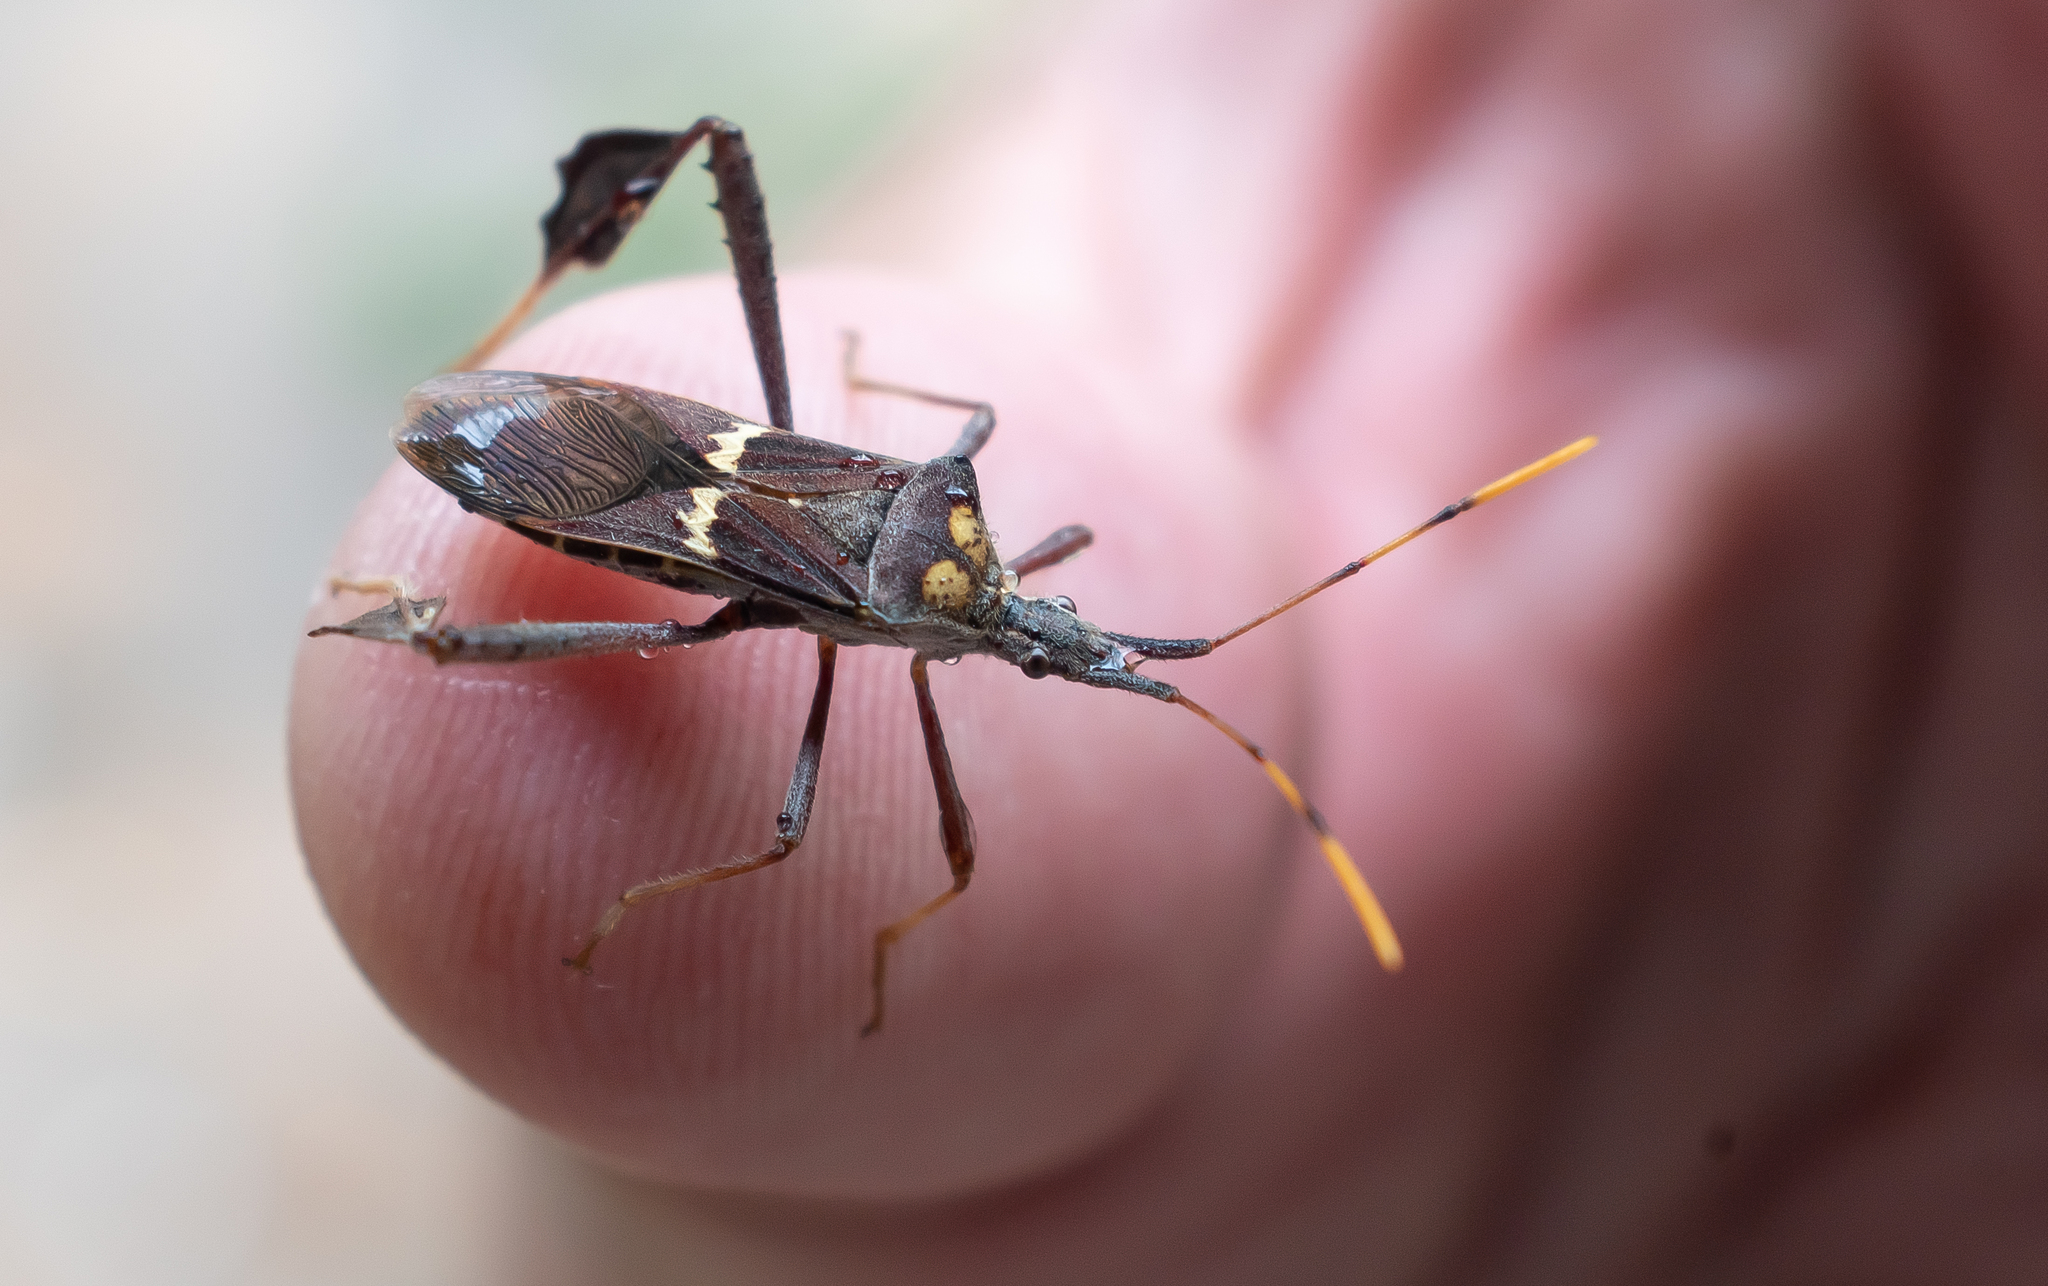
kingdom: Animalia
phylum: Arthropoda
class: Insecta
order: Hemiptera
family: Coreidae
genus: Leptoglossus
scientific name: Leptoglossus zonatus
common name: Large-legged bug
